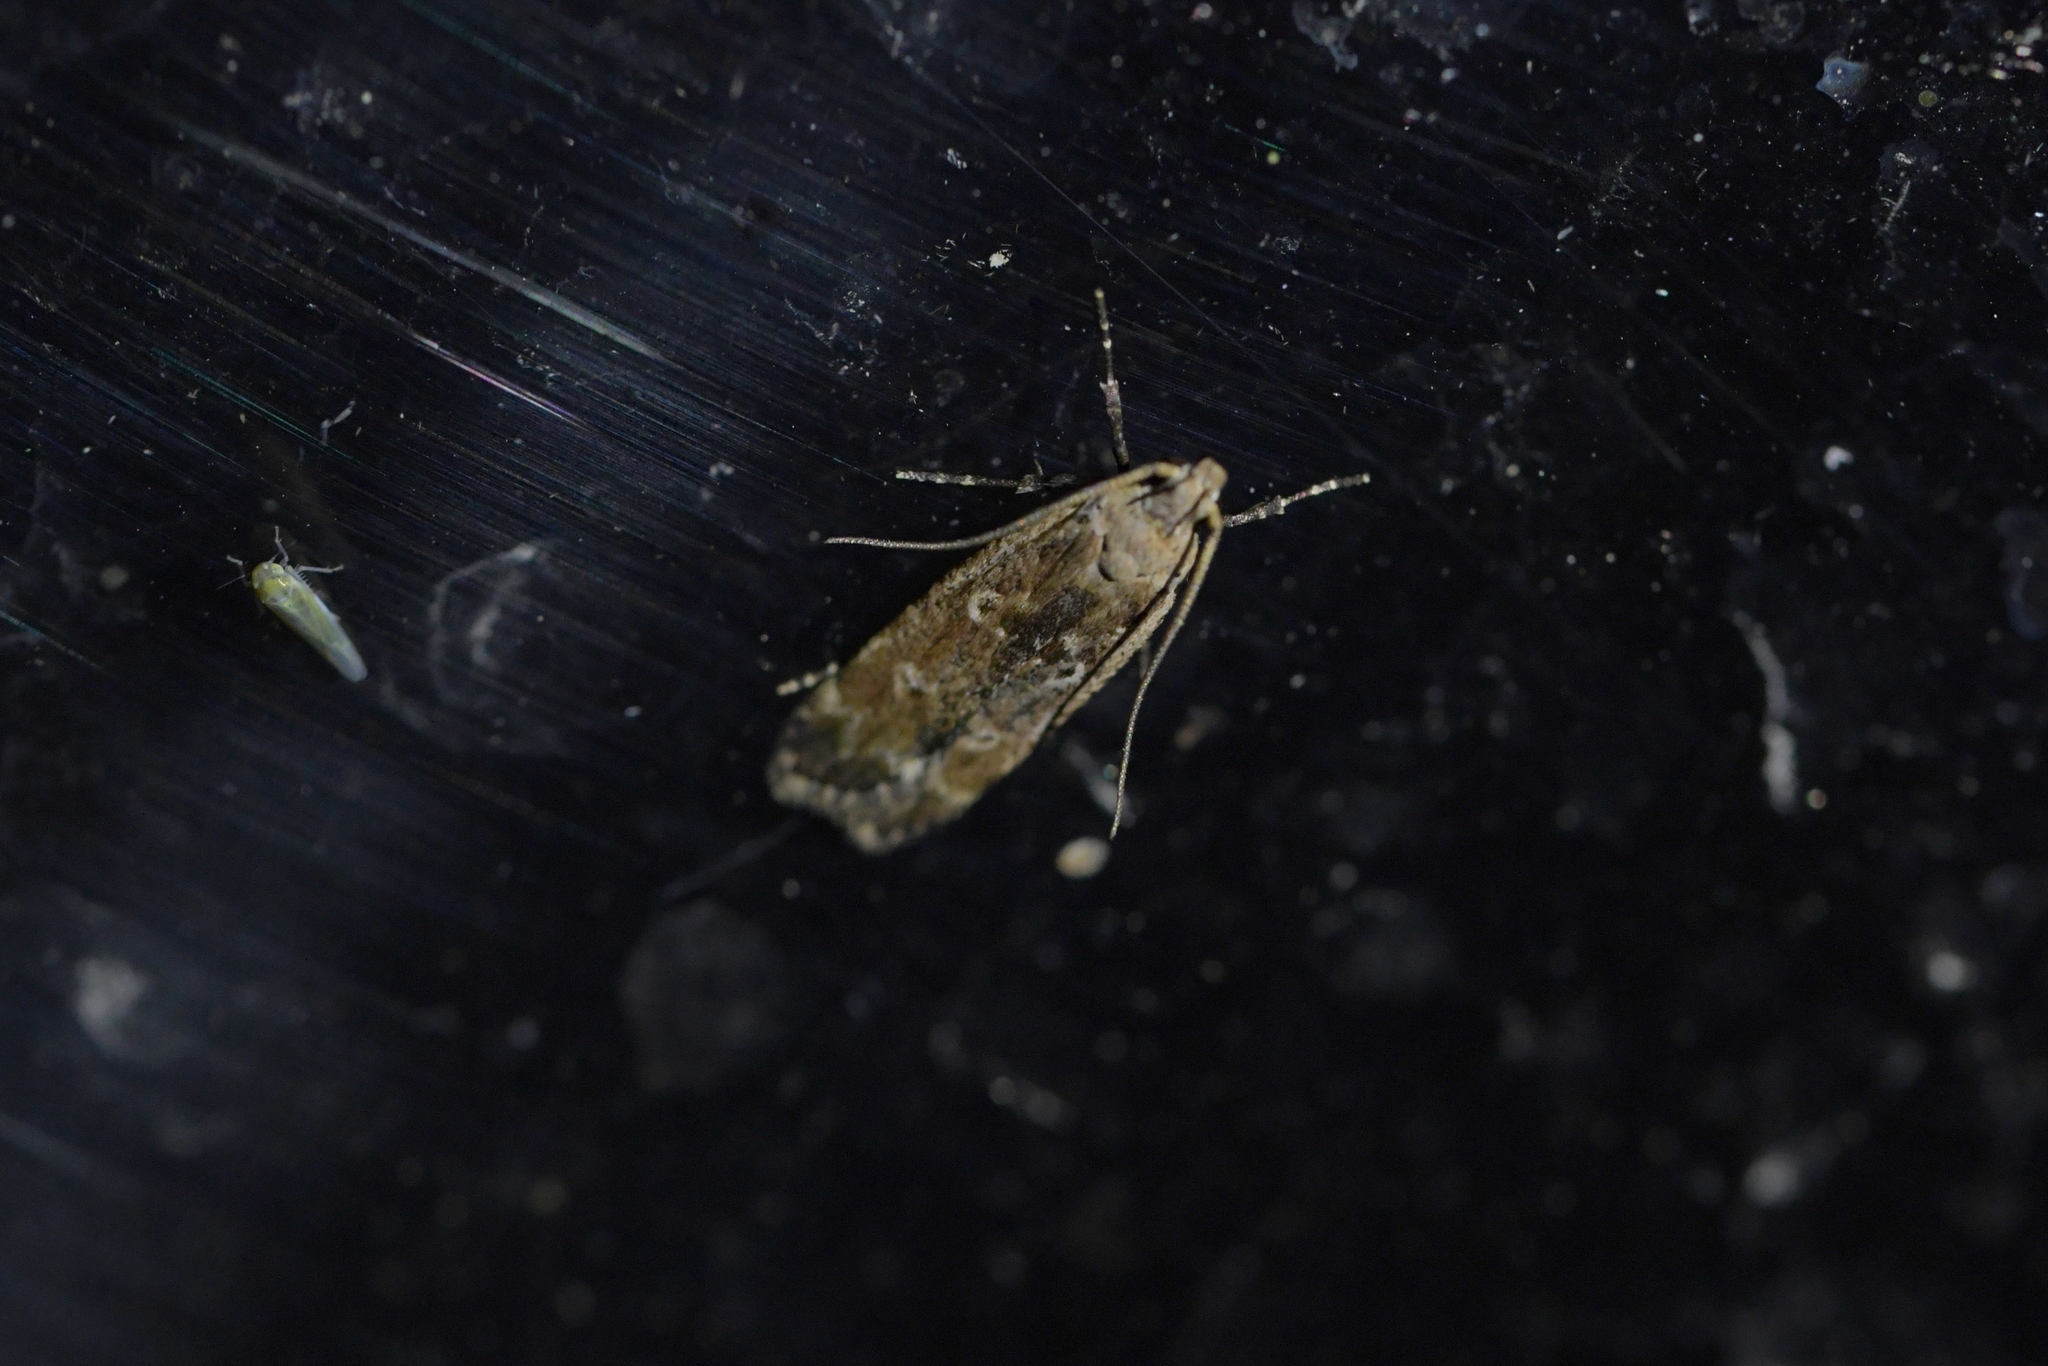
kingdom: Animalia
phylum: Arthropoda
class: Insecta
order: Lepidoptera
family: Gelechiidae
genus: Anisoplaca
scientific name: Anisoplaca achyrota
